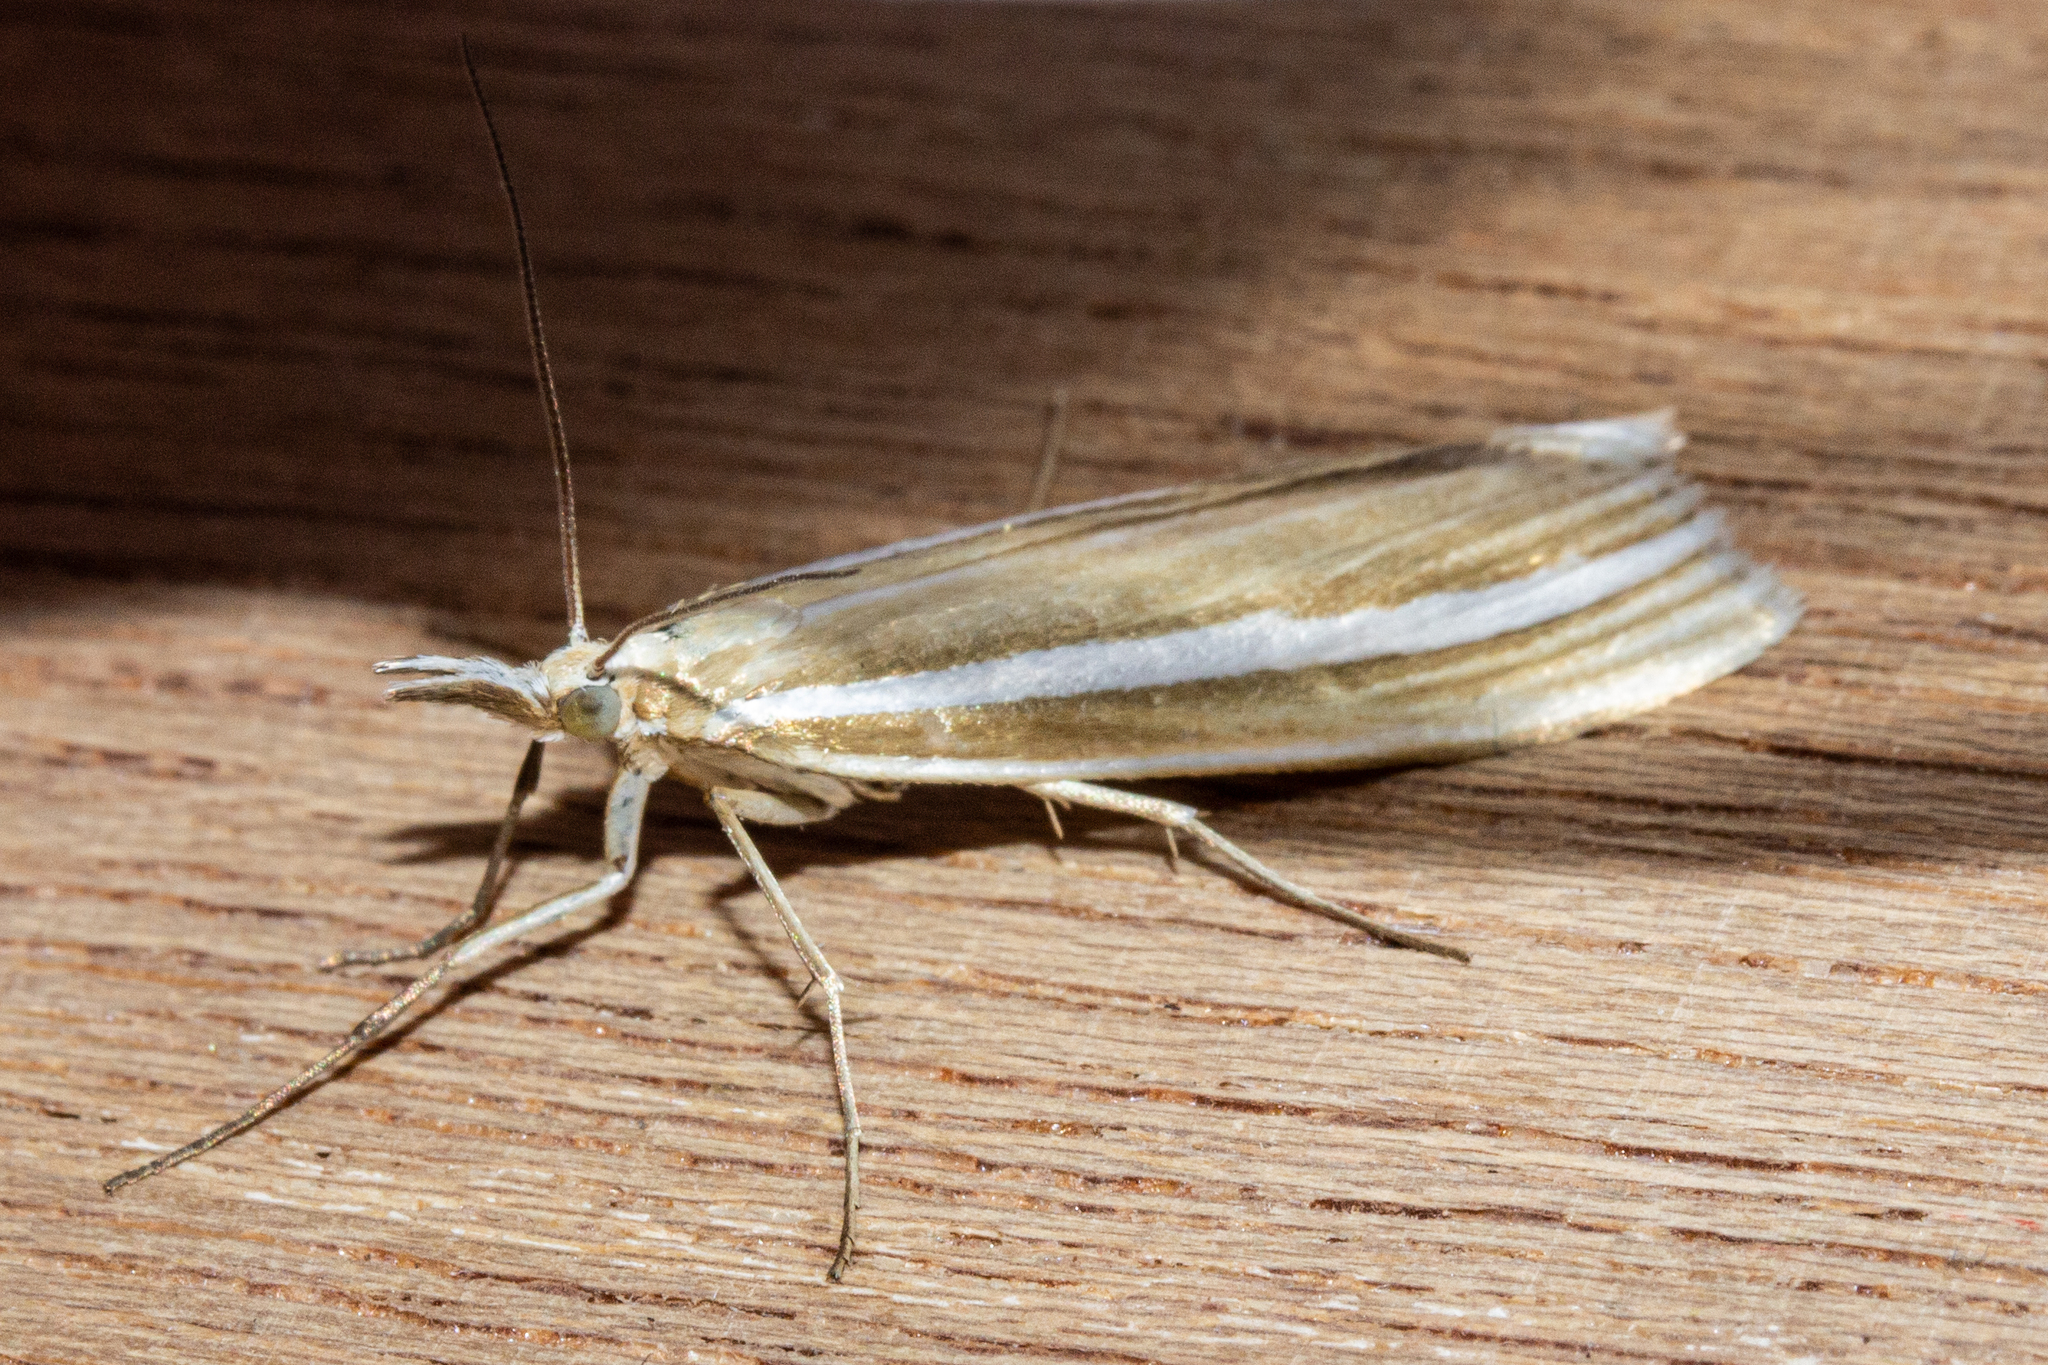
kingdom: Animalia
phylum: Arthropoda
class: Insecta
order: Lepidoptera
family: Crambidae
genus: Orocrambus
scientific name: Orocrambus lewisi
